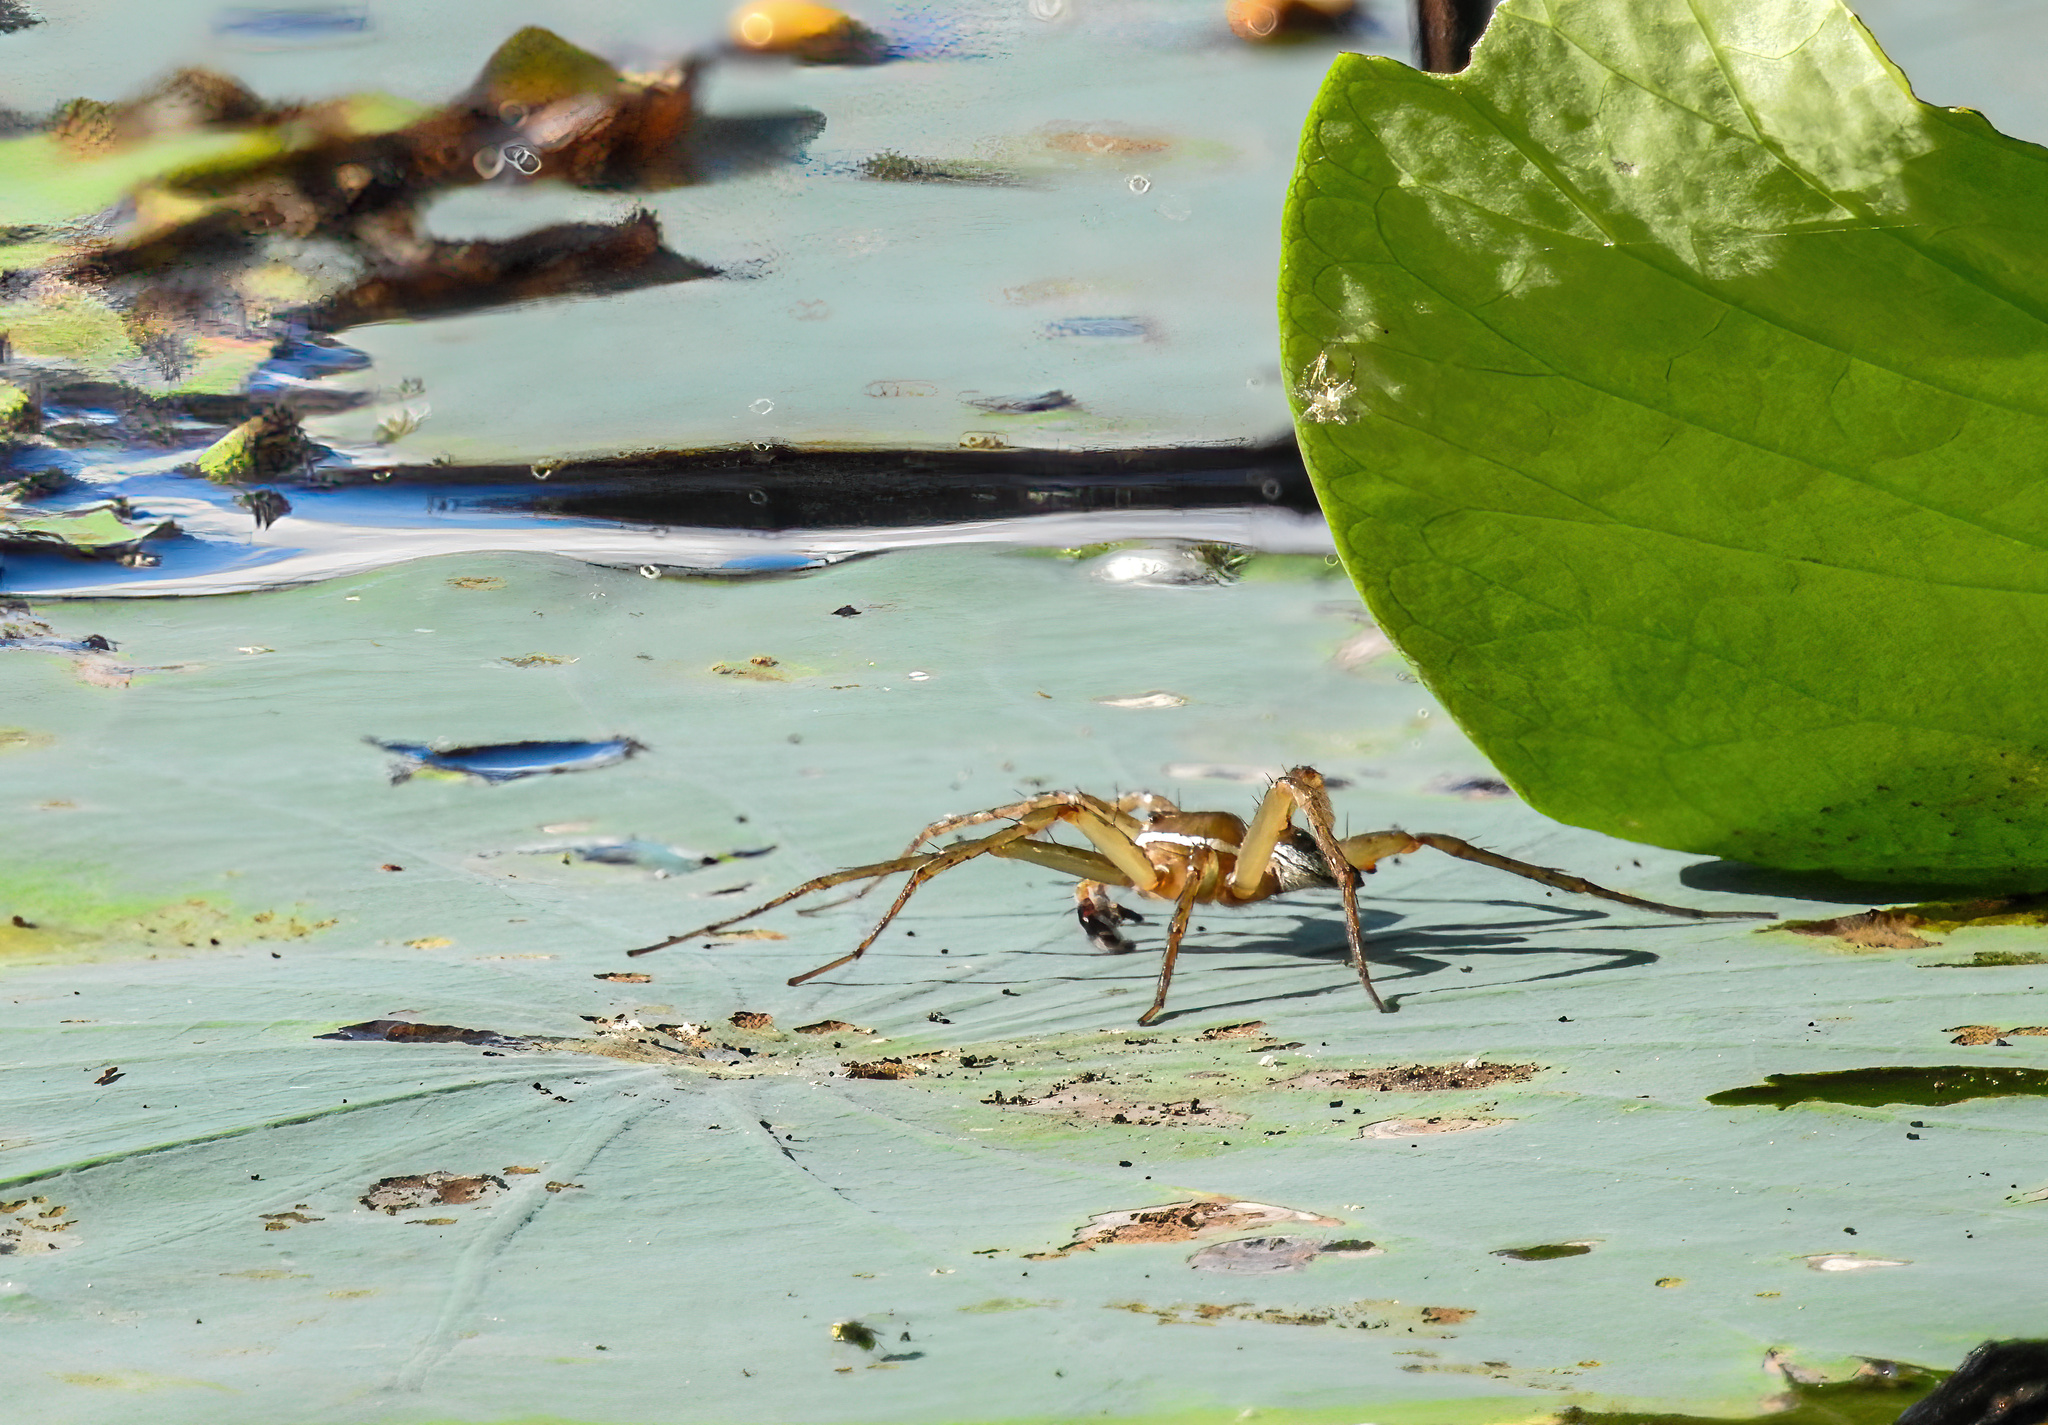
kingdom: Animalia
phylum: Arthropoda
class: Arachnida
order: Araneae
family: Pisauridae
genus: Dolomedes
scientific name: Dolomedes triton
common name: Six-spotted fishing spider
